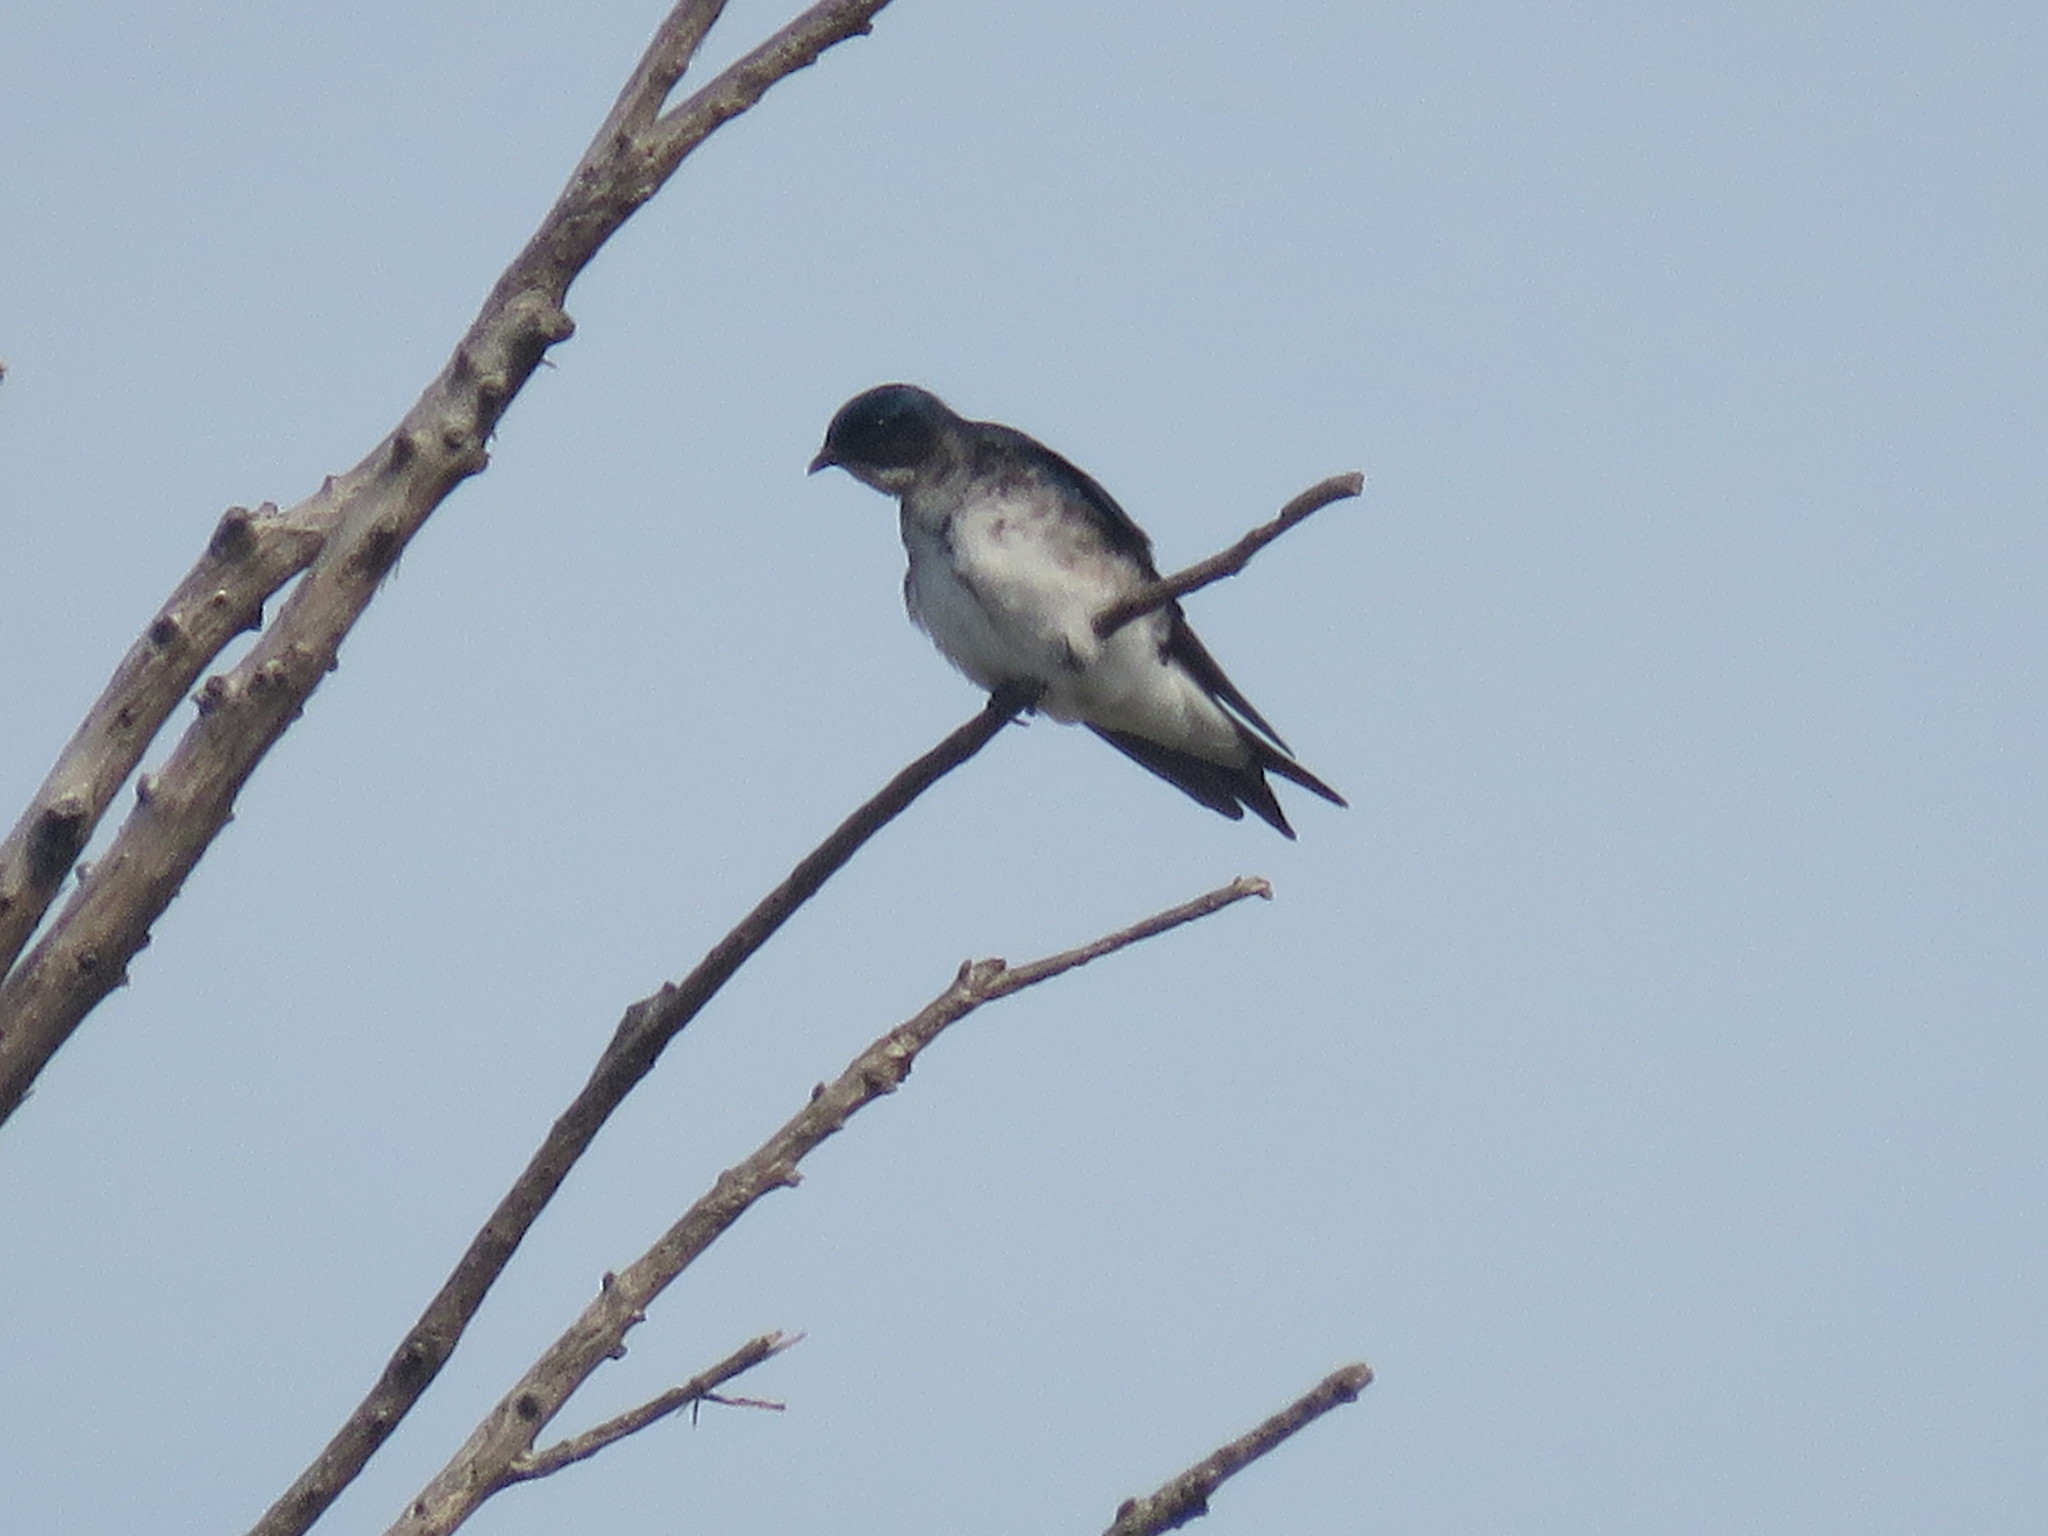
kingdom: Animalia
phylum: Chordata
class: Aves
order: Passeriformes
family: Hirundinidae
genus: Progne
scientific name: Progne chalybea
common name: Grey-breasted martin
